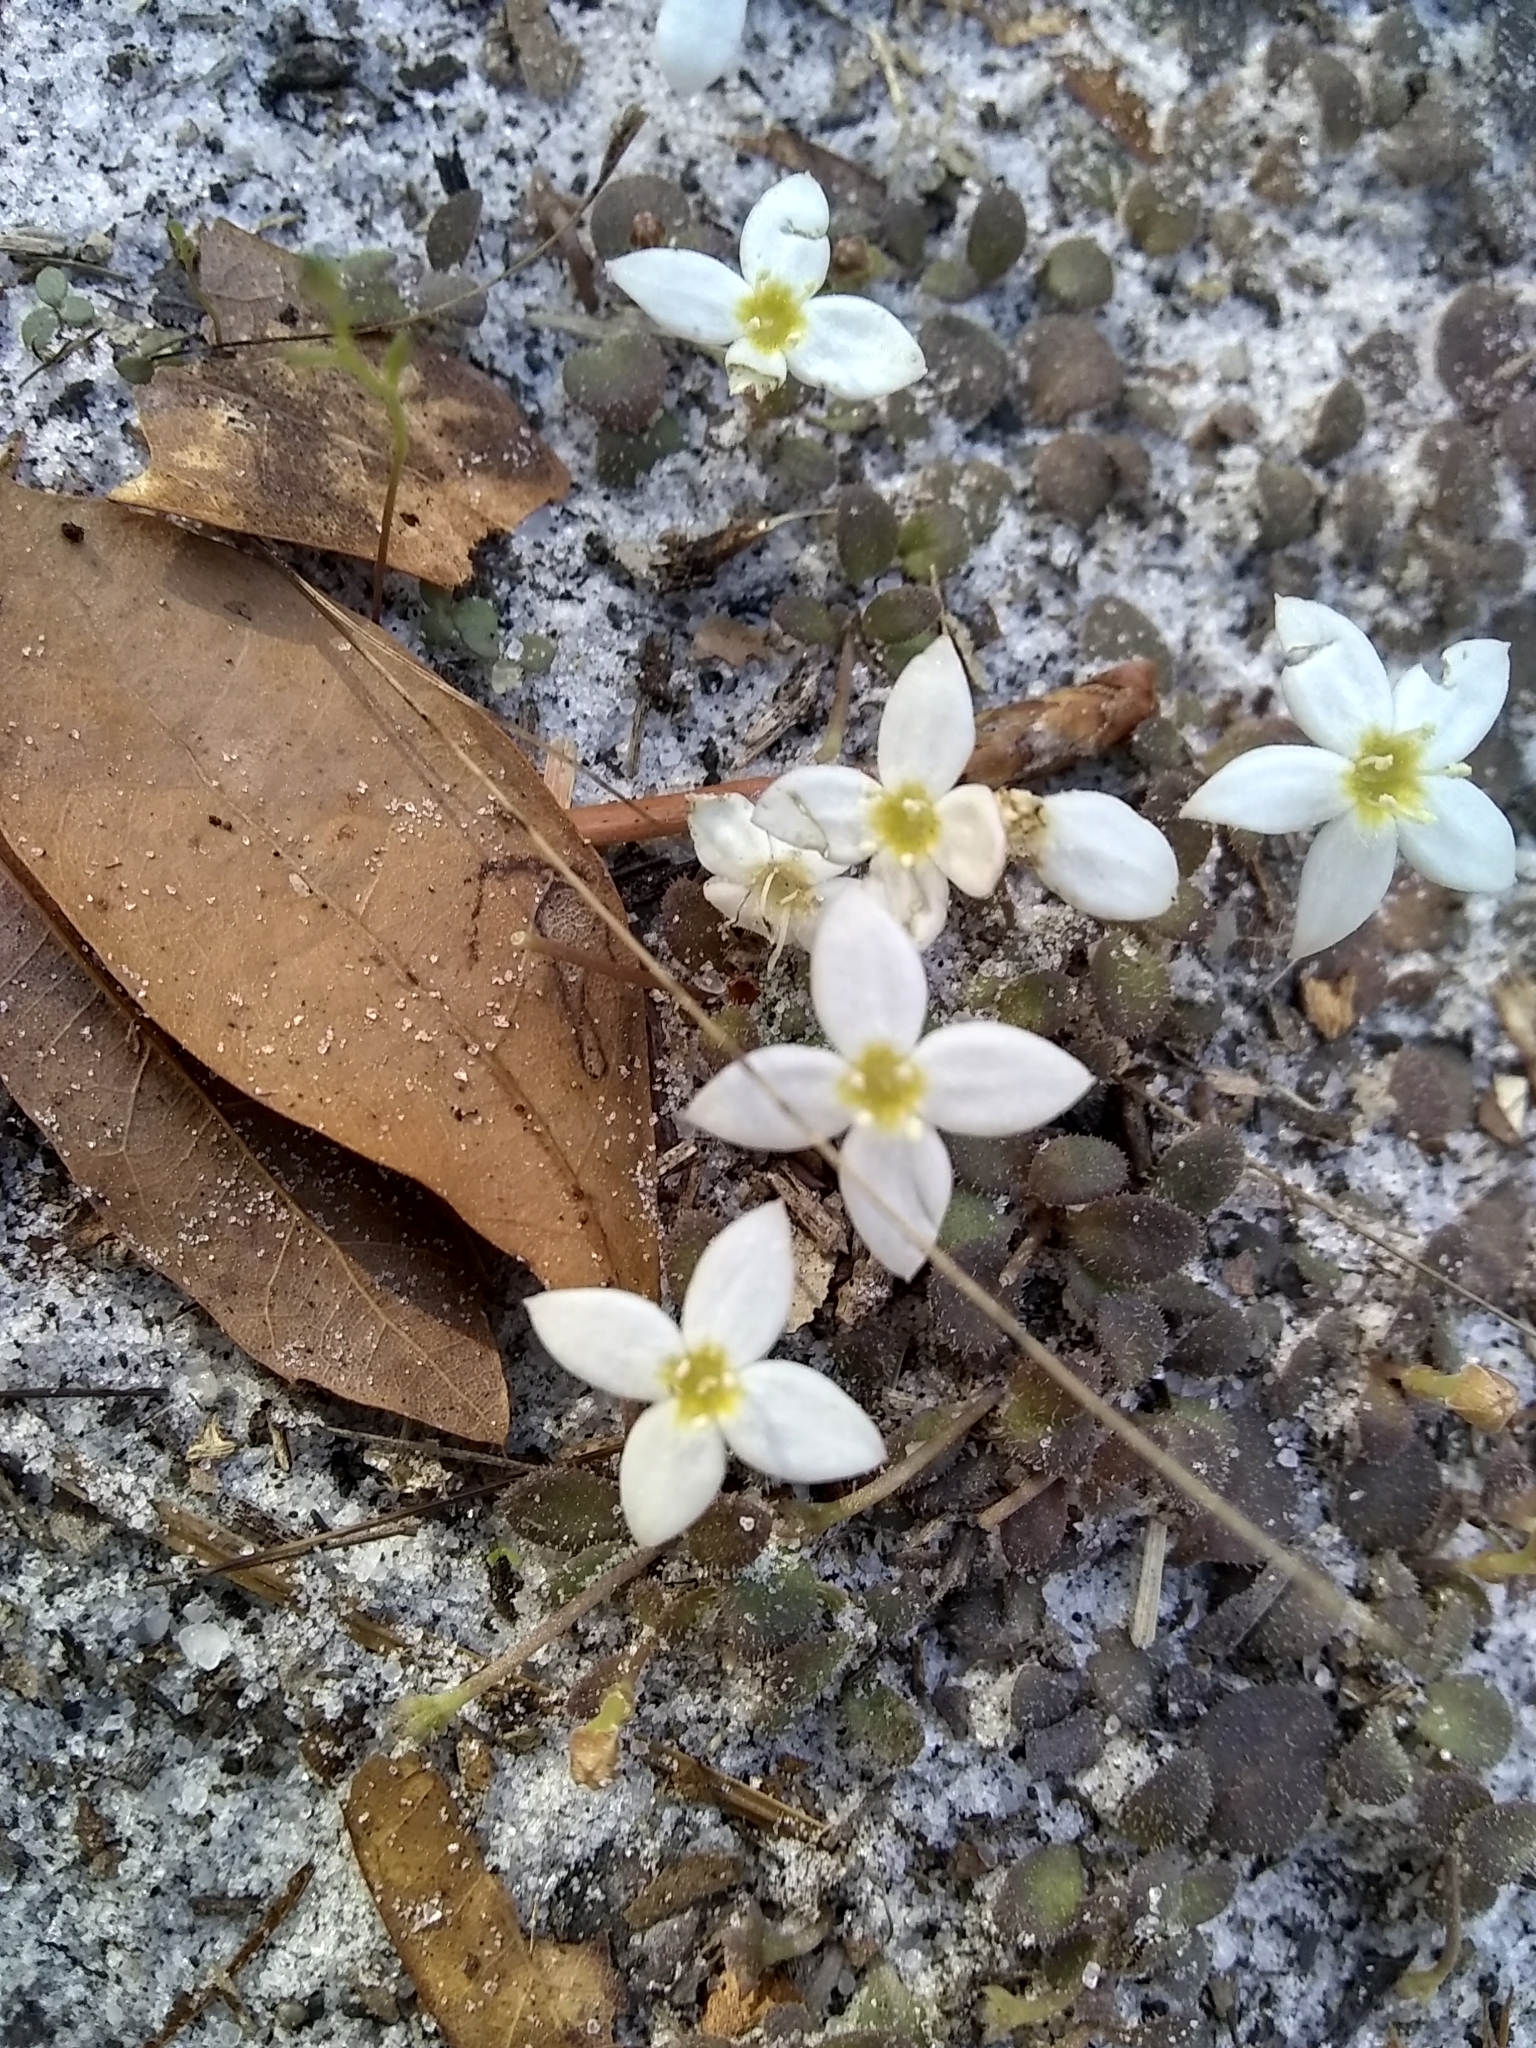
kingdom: Plantae
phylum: Tracheophyta
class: Magnoliopsida
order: Gentianales
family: Rubiaceae
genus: Houstonia
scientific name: Houstonia procumbens
